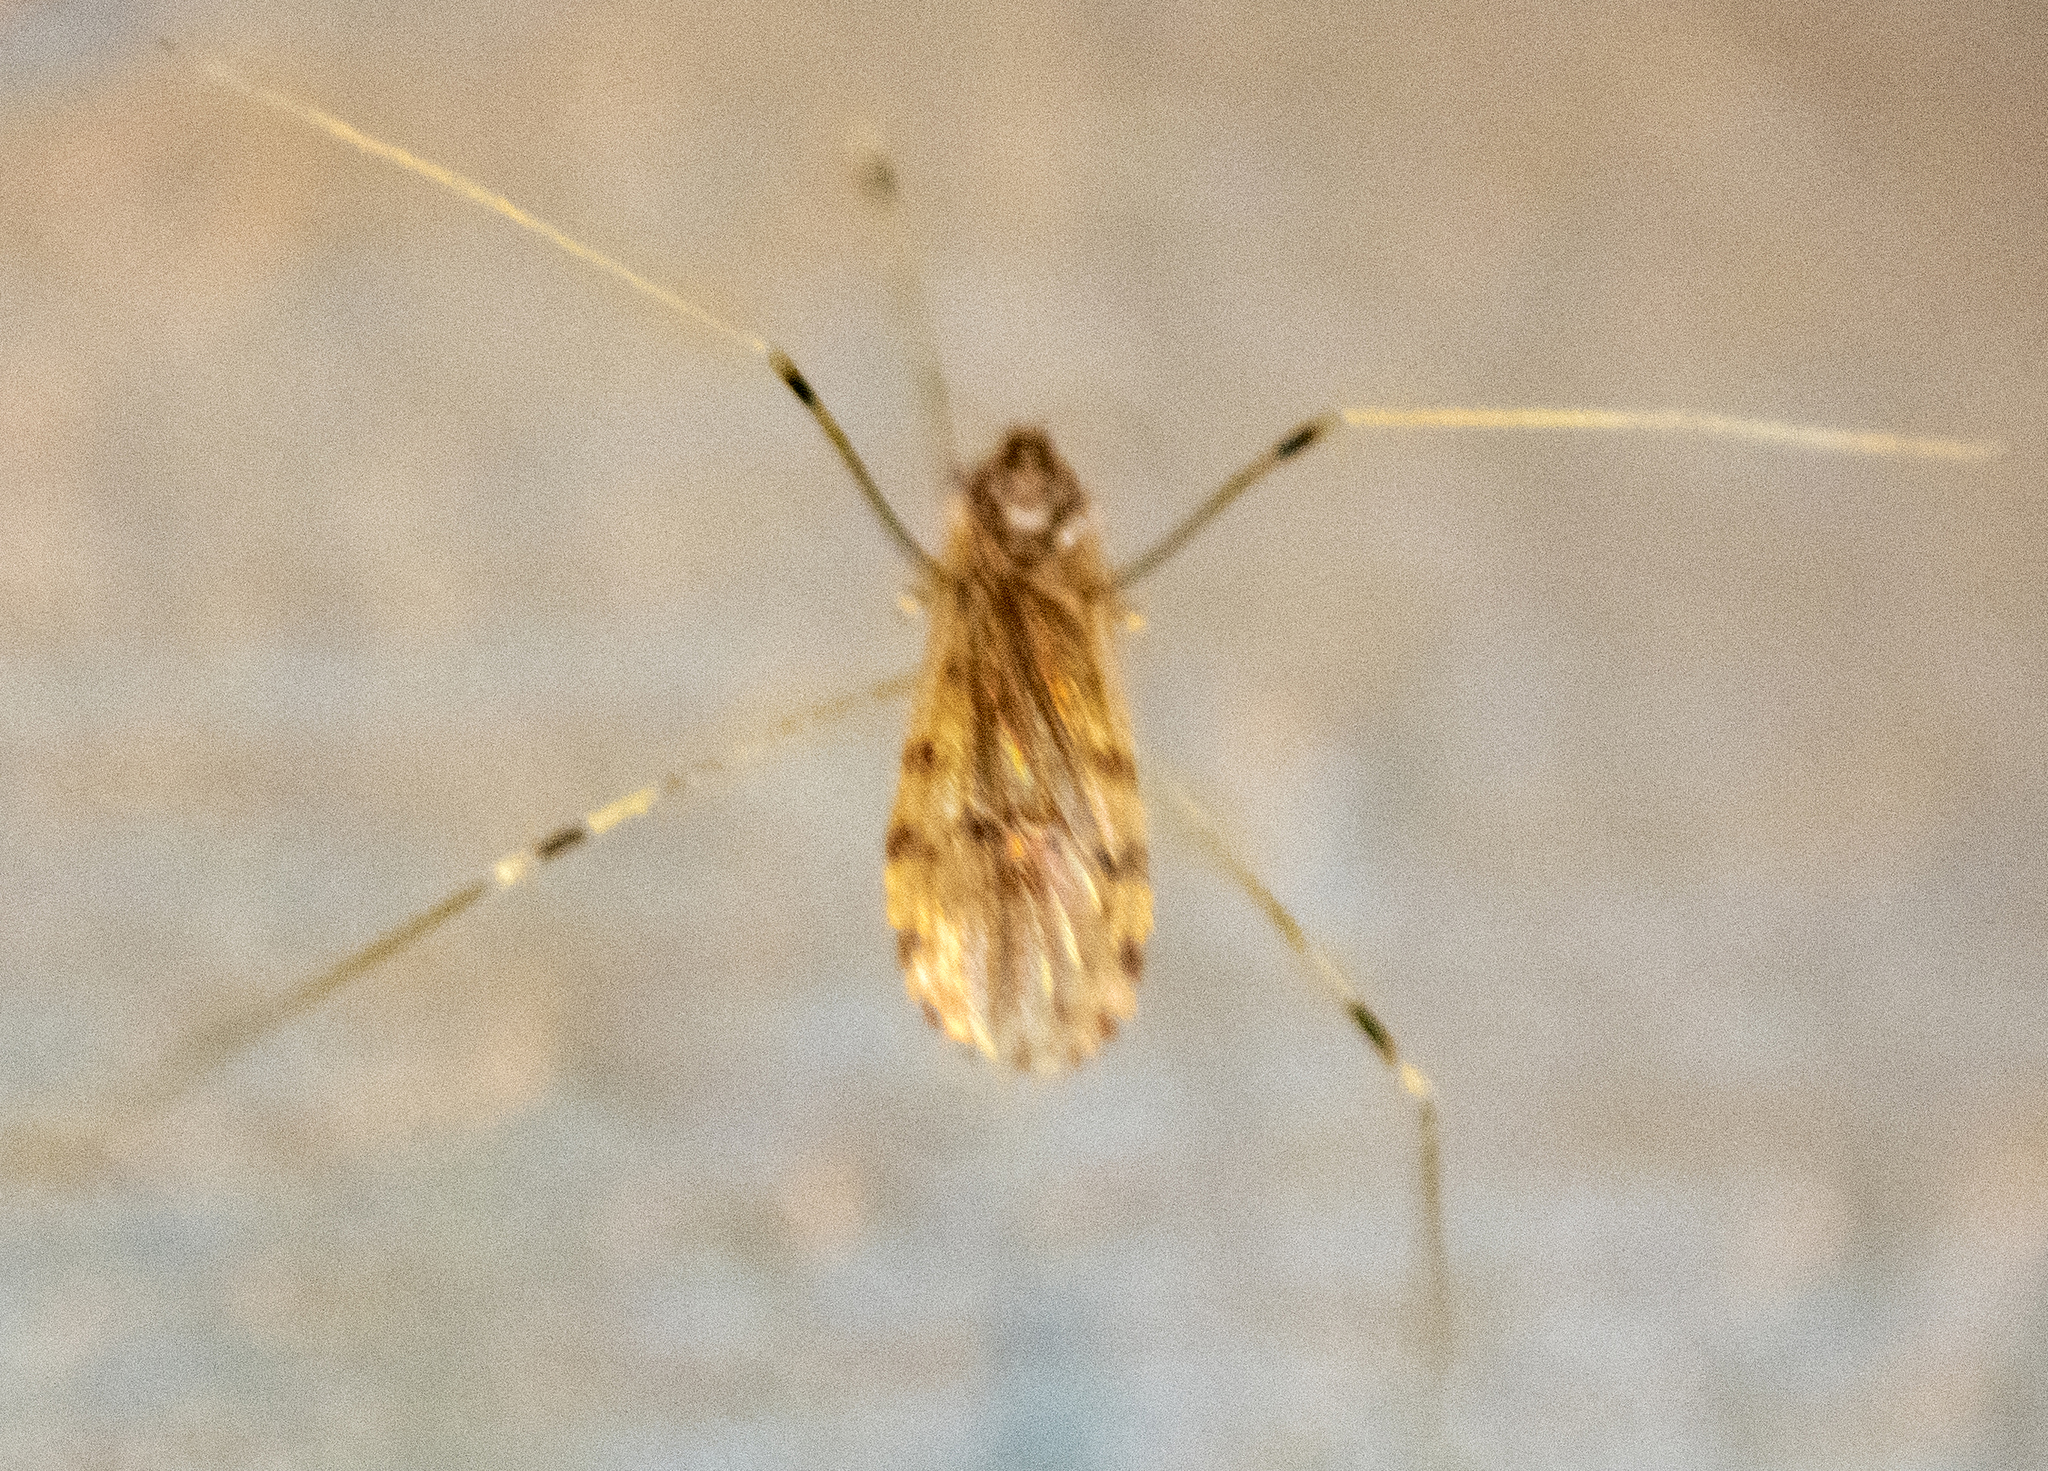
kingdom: Animalia
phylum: Arthropoda
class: Insecta
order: Diptera
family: Limoniidae
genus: Erioptera
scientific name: Erioptera parva
